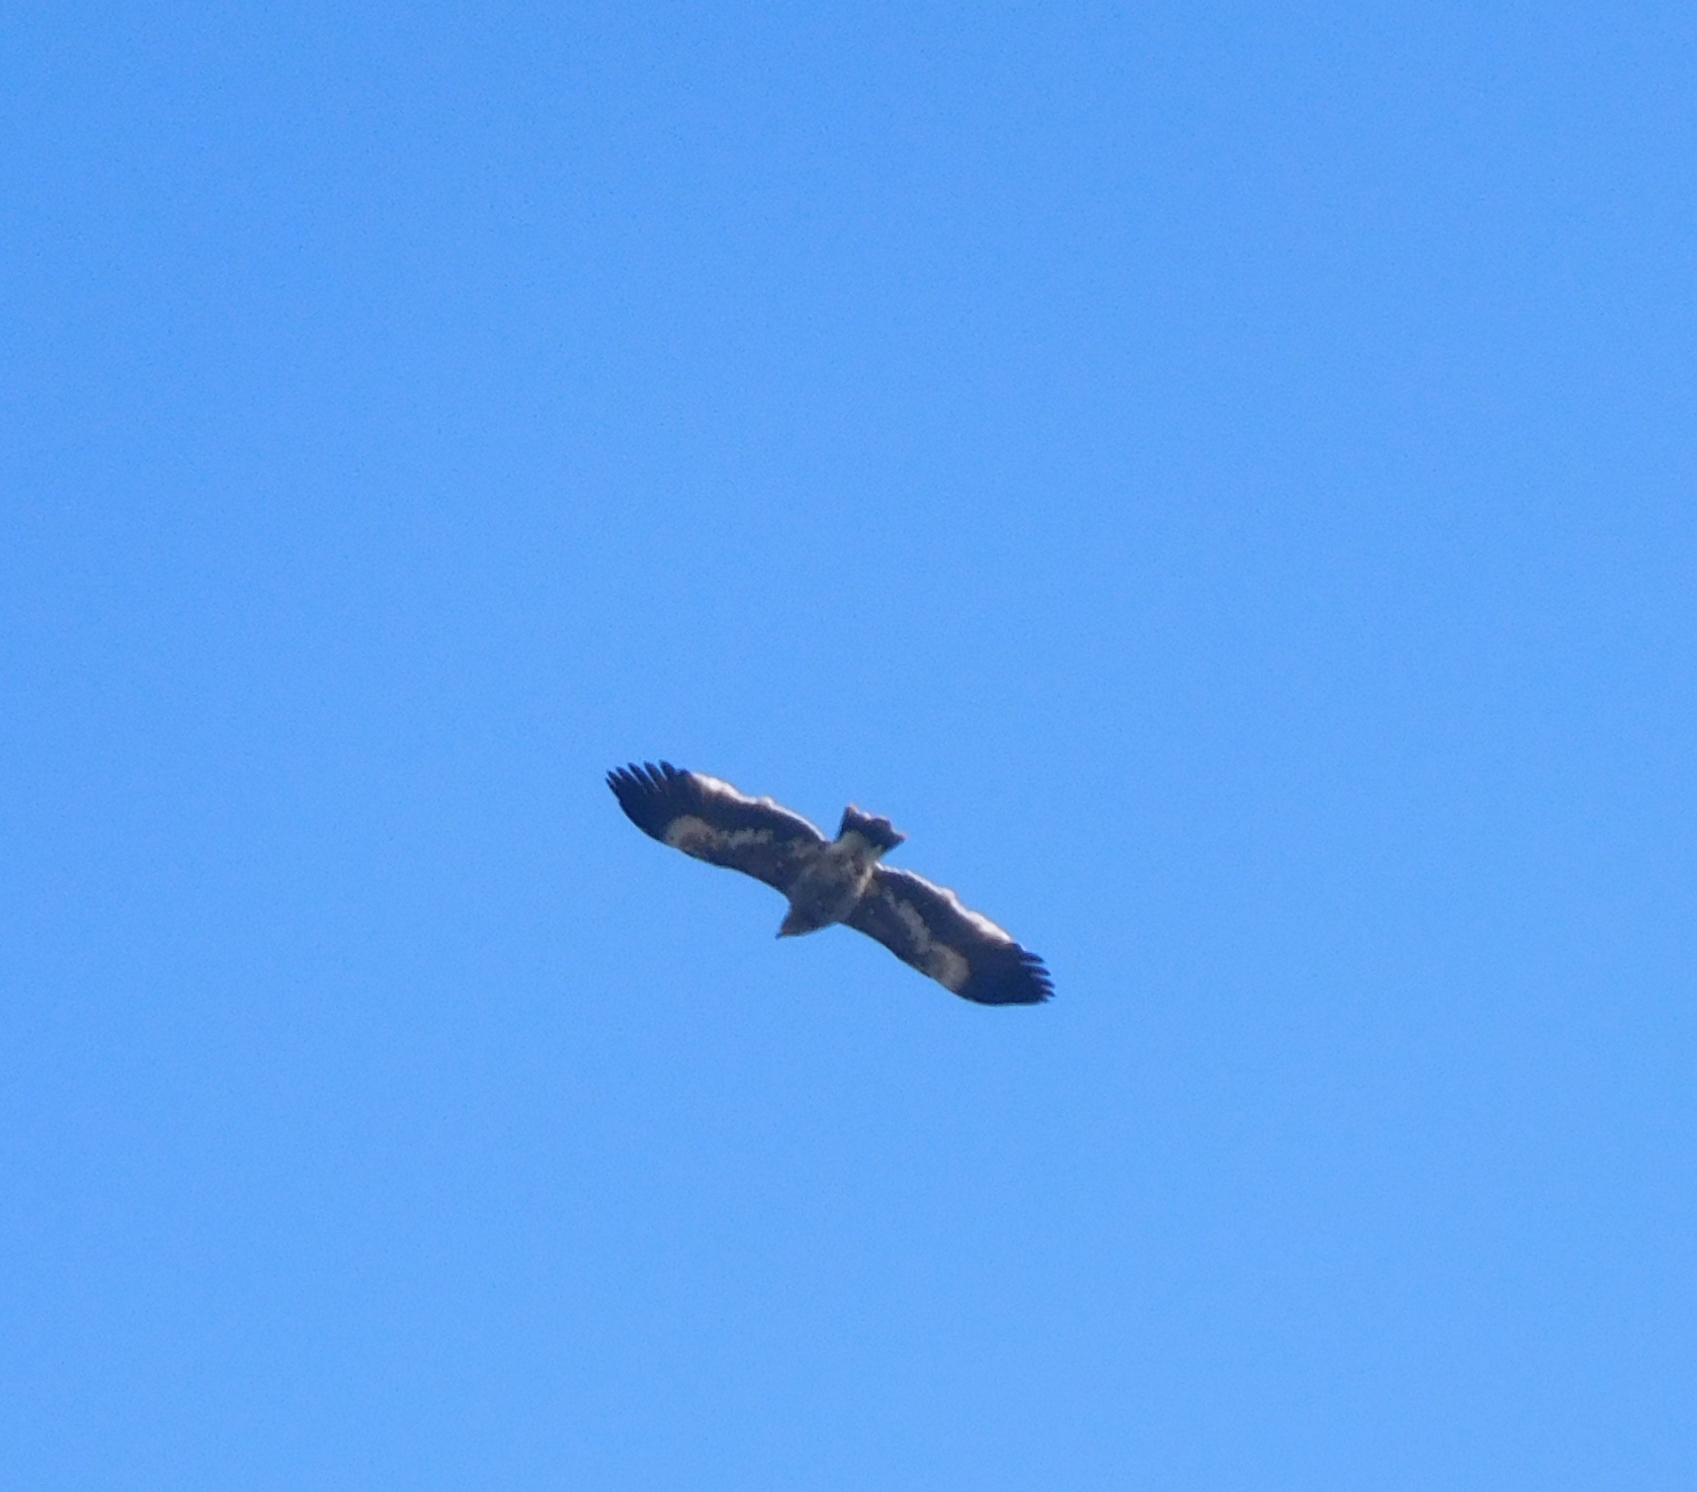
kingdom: Animalia
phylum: Chordata
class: Aves
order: Accipitriformes
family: Accipitridae
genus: Aquila
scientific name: Aquila nipalensis
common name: Steppe eagle
